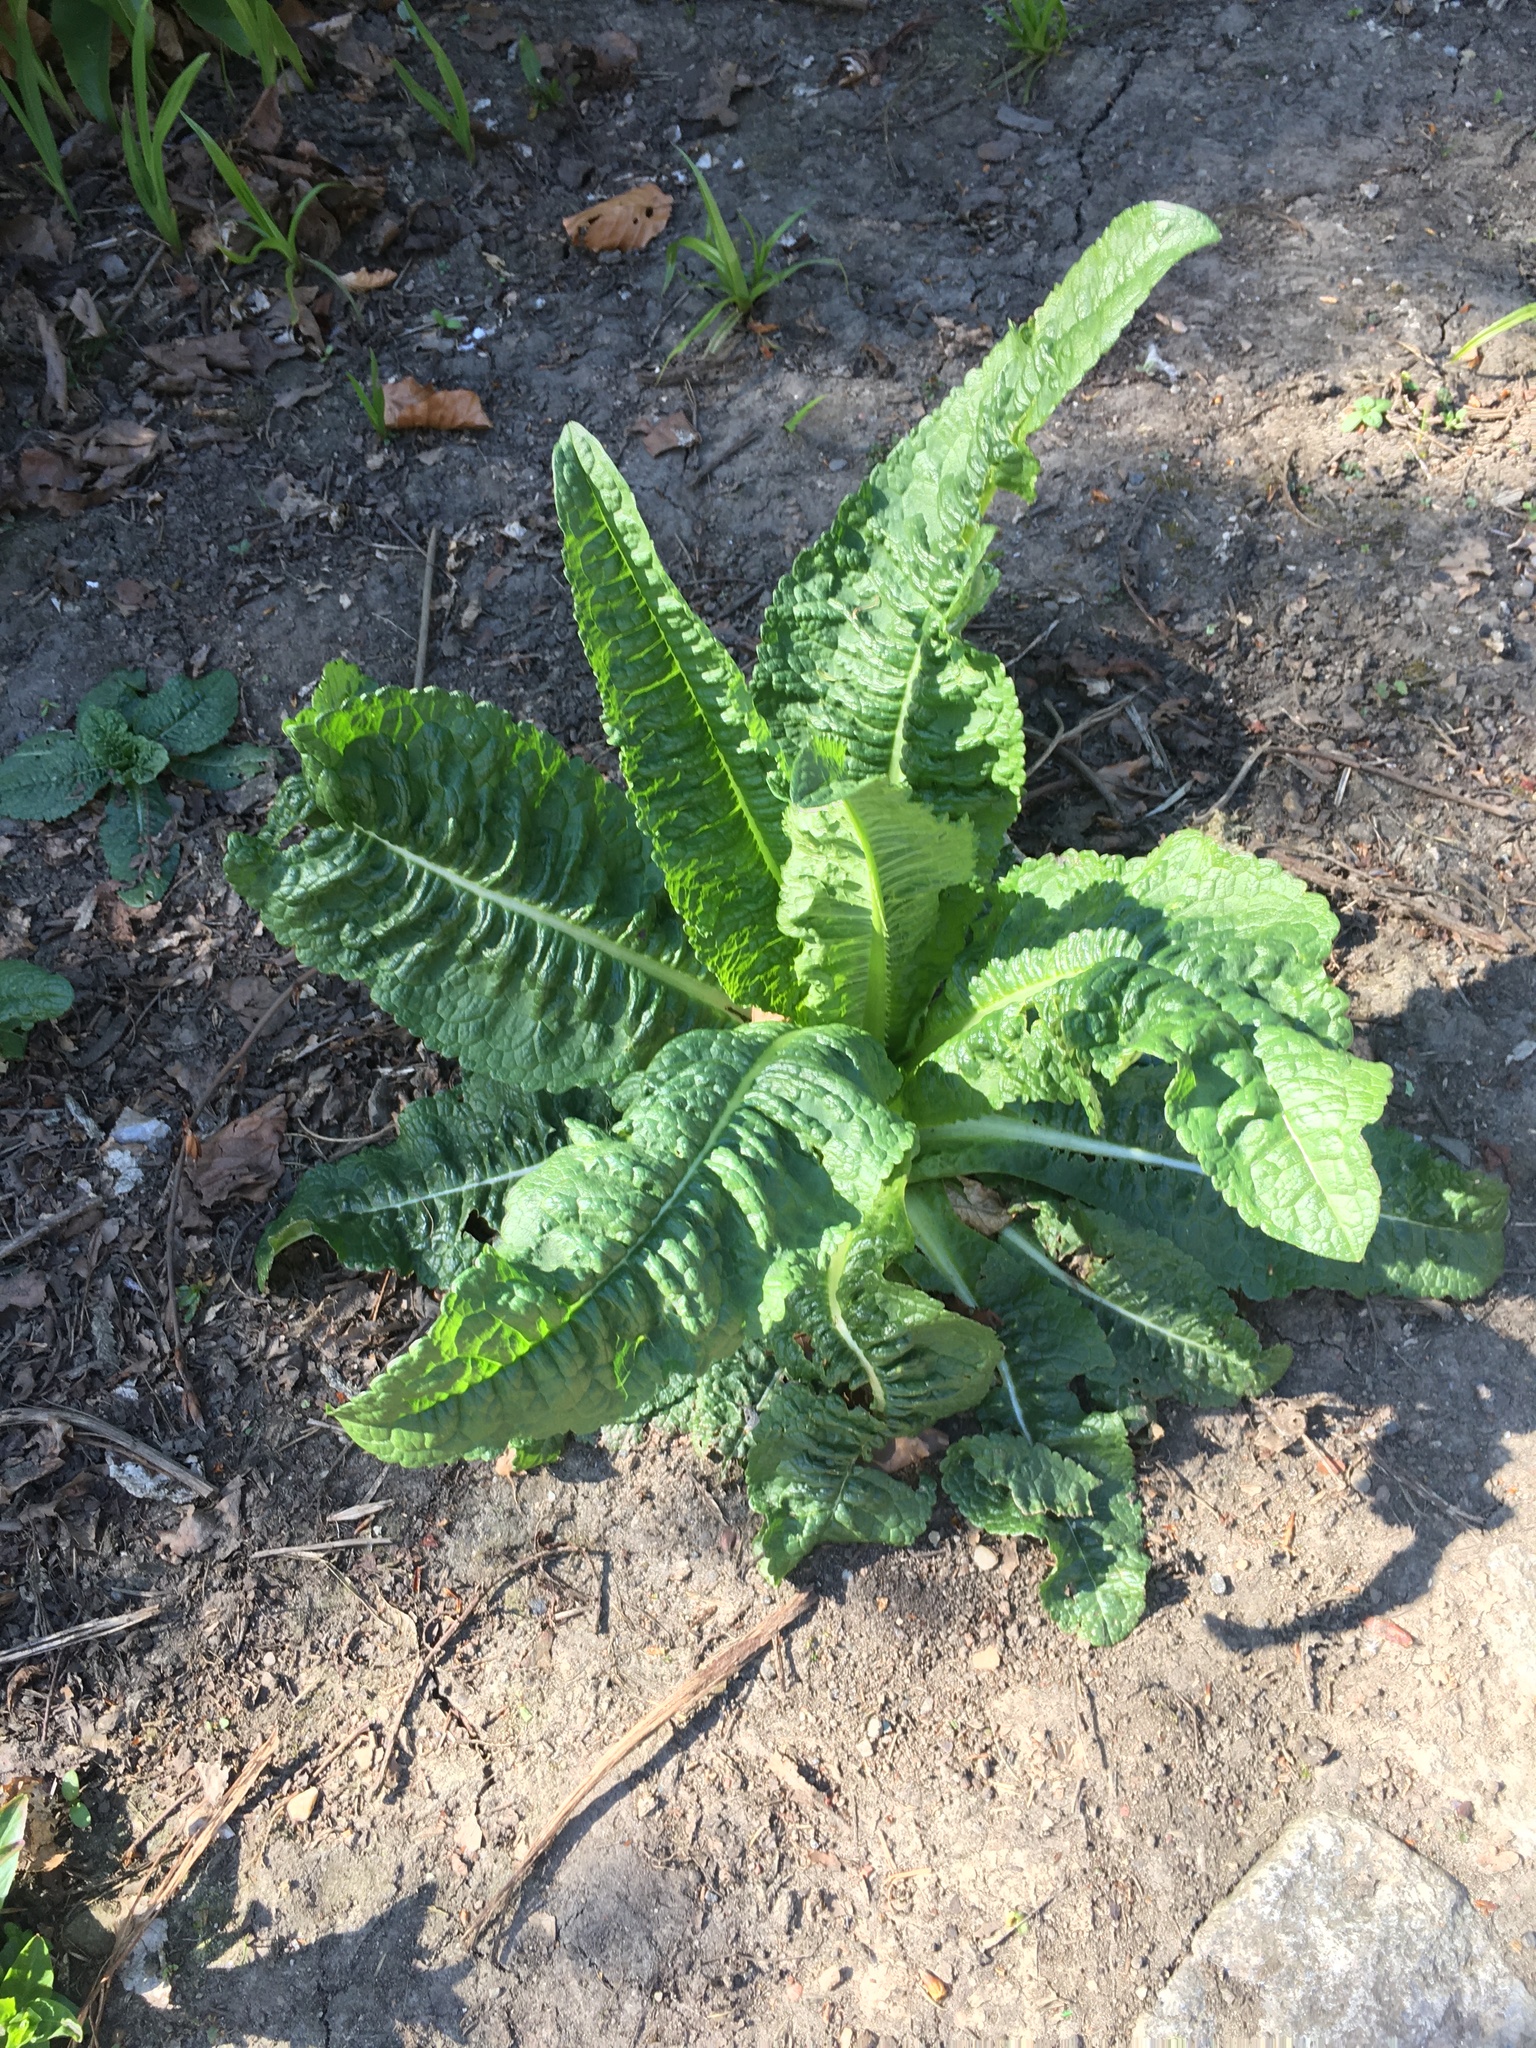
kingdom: Plantae
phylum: Tracheophyta
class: Magnoliopsida
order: Dipsacales
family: Caprifoliaceae
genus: Dipsacus
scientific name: Dipsacus fullonum
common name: Teasel
